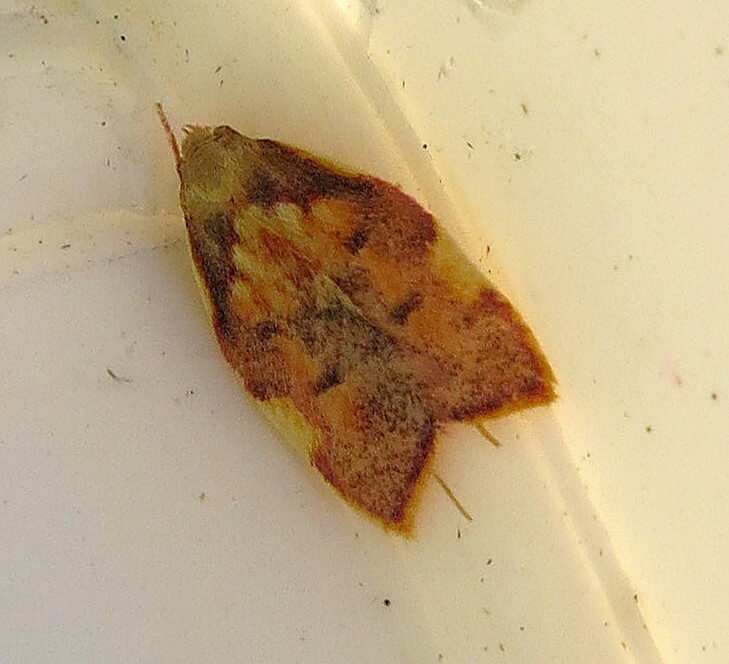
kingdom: Animalia
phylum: Arthropoda
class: Insecta
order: Lepidoptera
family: Peleopodidae
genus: Carcina
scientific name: Carcina quercana
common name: Moth
